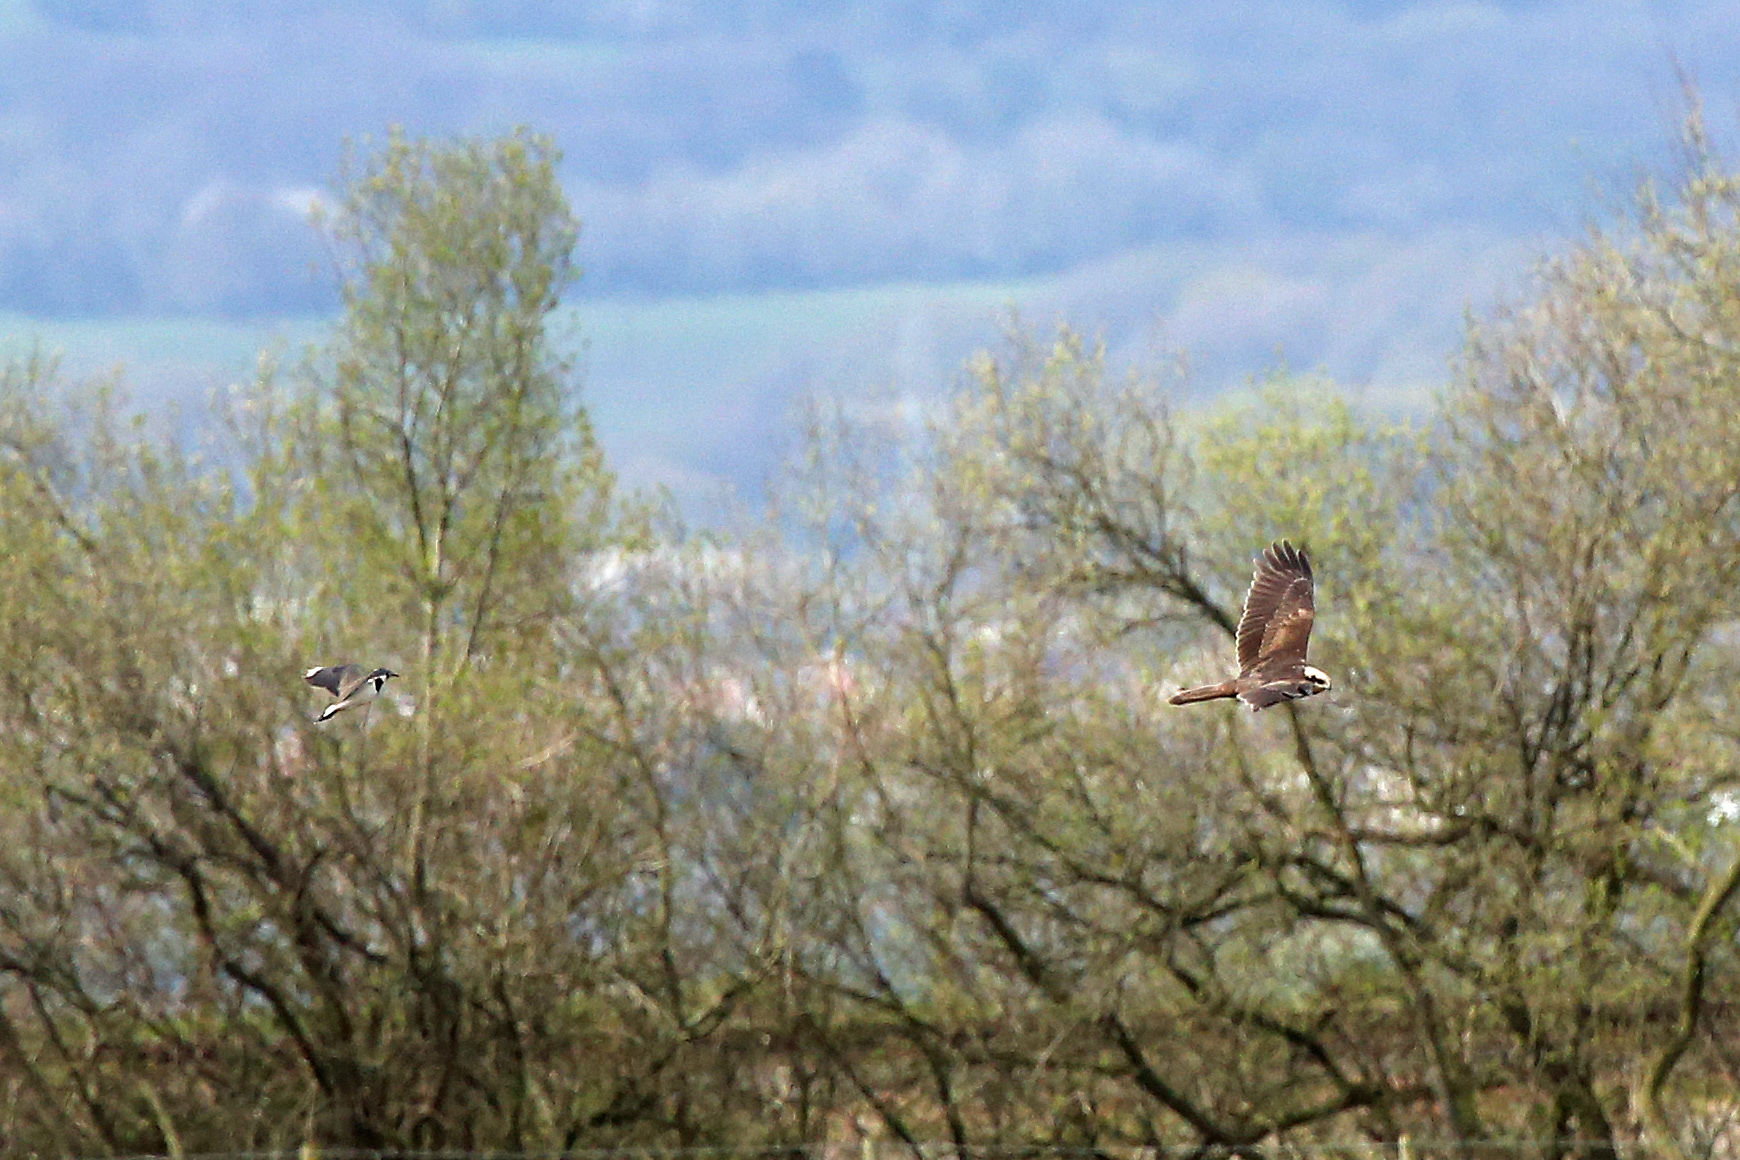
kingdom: Animalia
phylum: Chordata
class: Aves
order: Accipitriformes
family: Accipitridae
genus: Circus
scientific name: Circus aeruginosus
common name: Western marsh harrier
